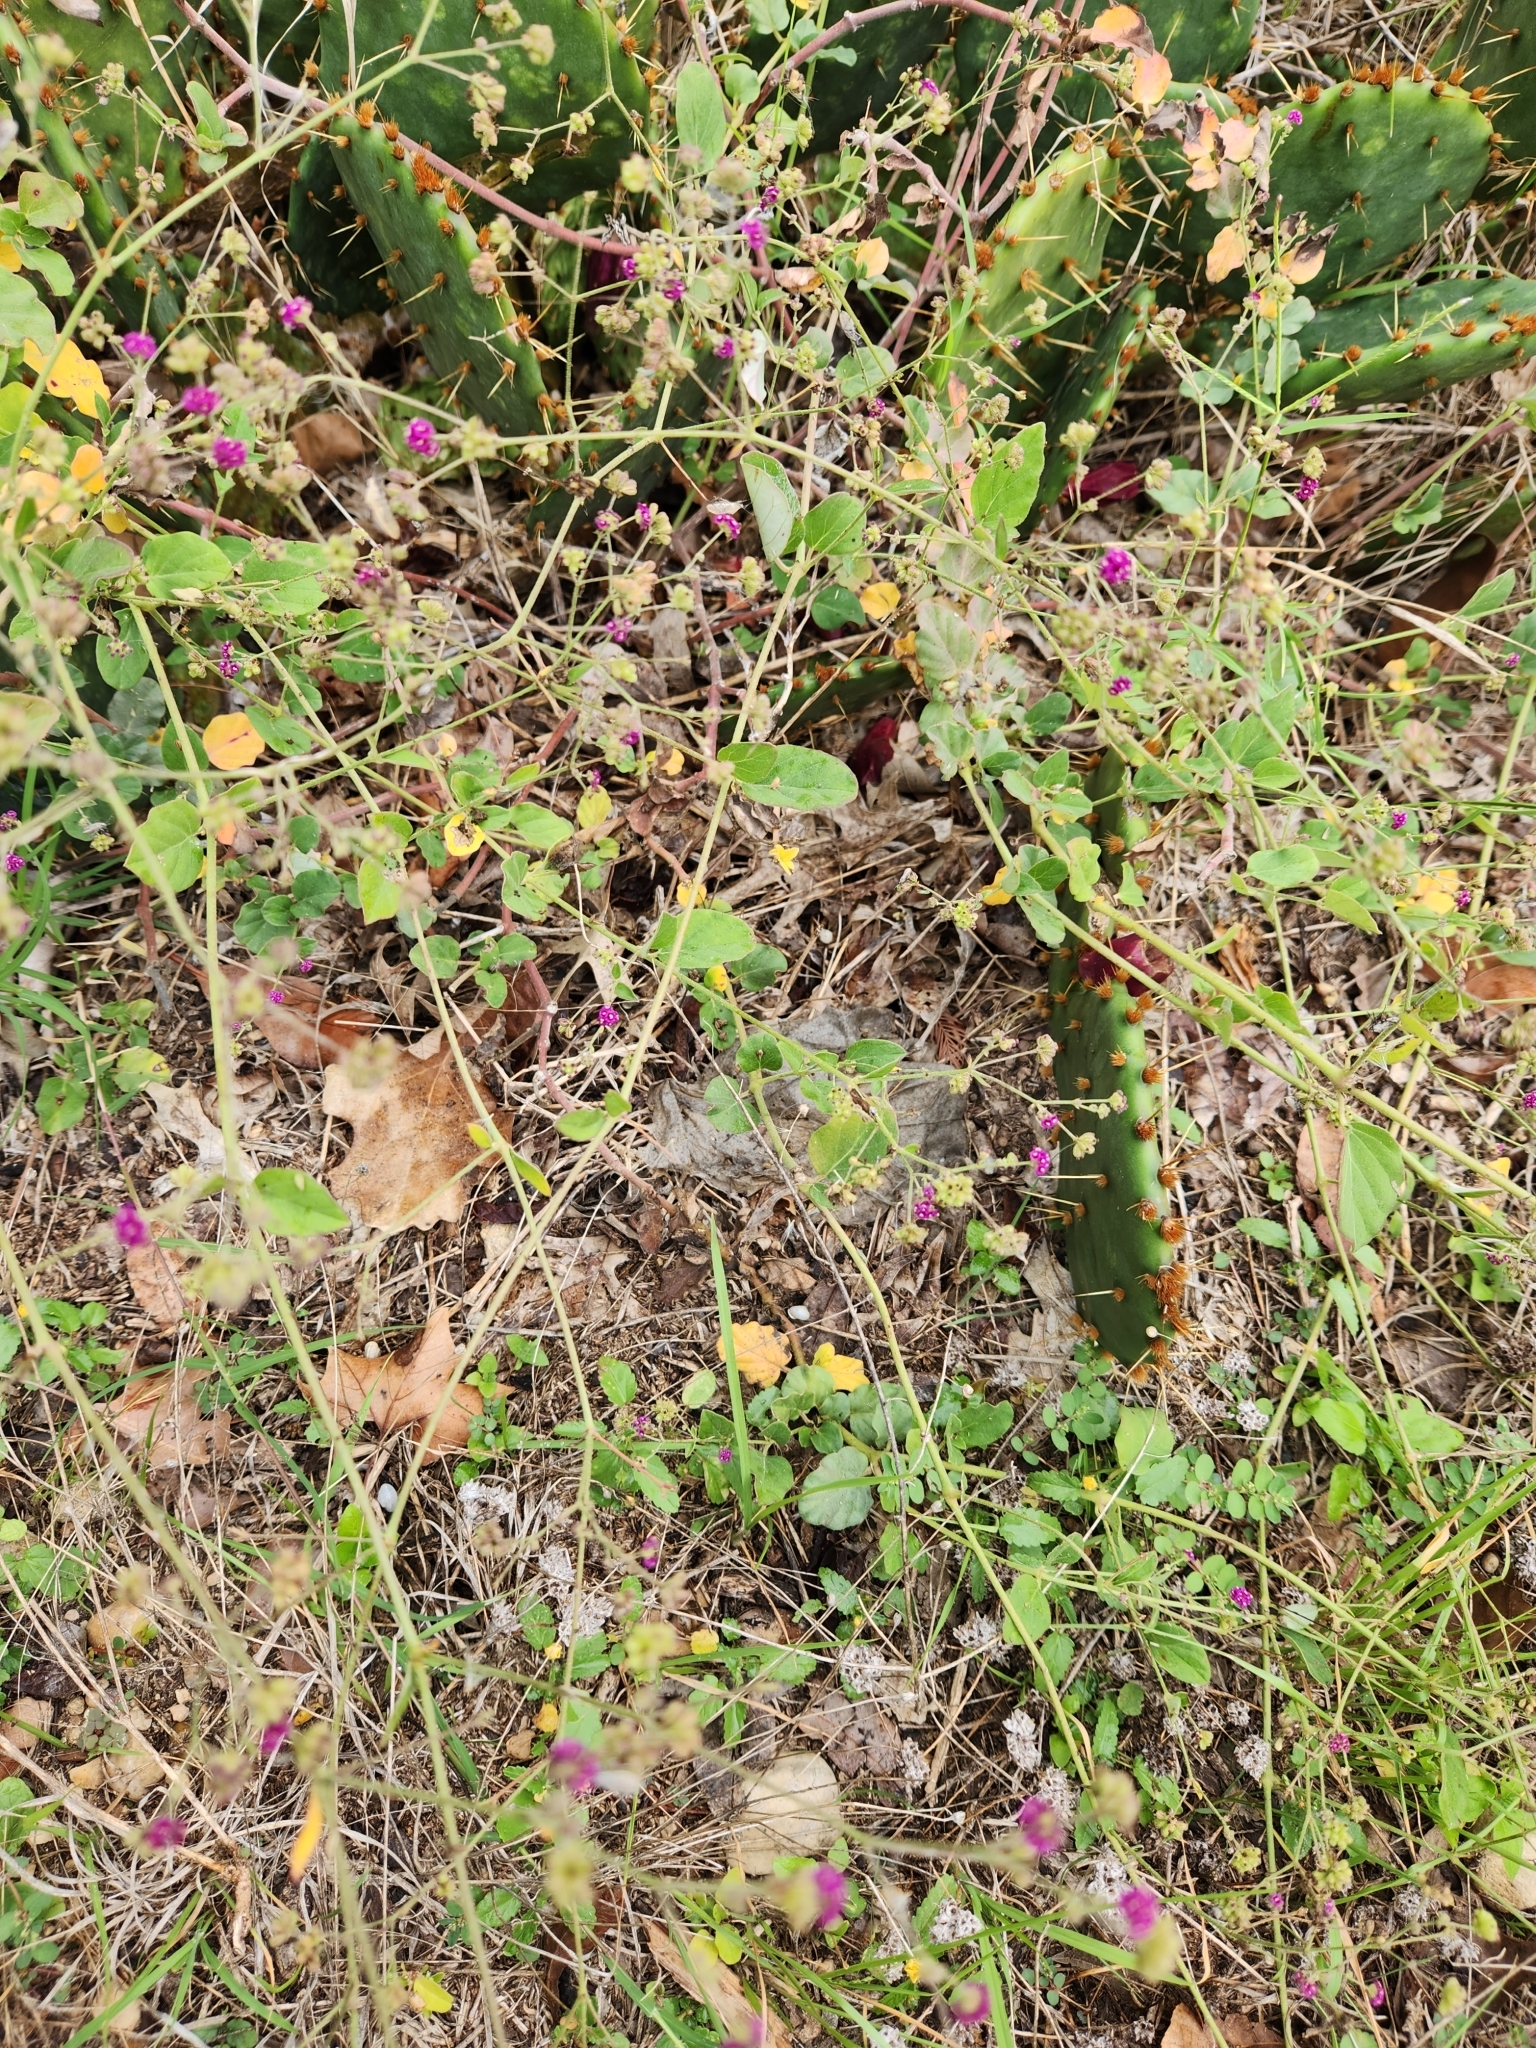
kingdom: Plantae
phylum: Tracheophyta
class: Magnoliopsida
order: Caryophyllales
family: Nyctaginaceae
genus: Boerhavia
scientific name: Boerhavia coccinea
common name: Scarlet spiderling
